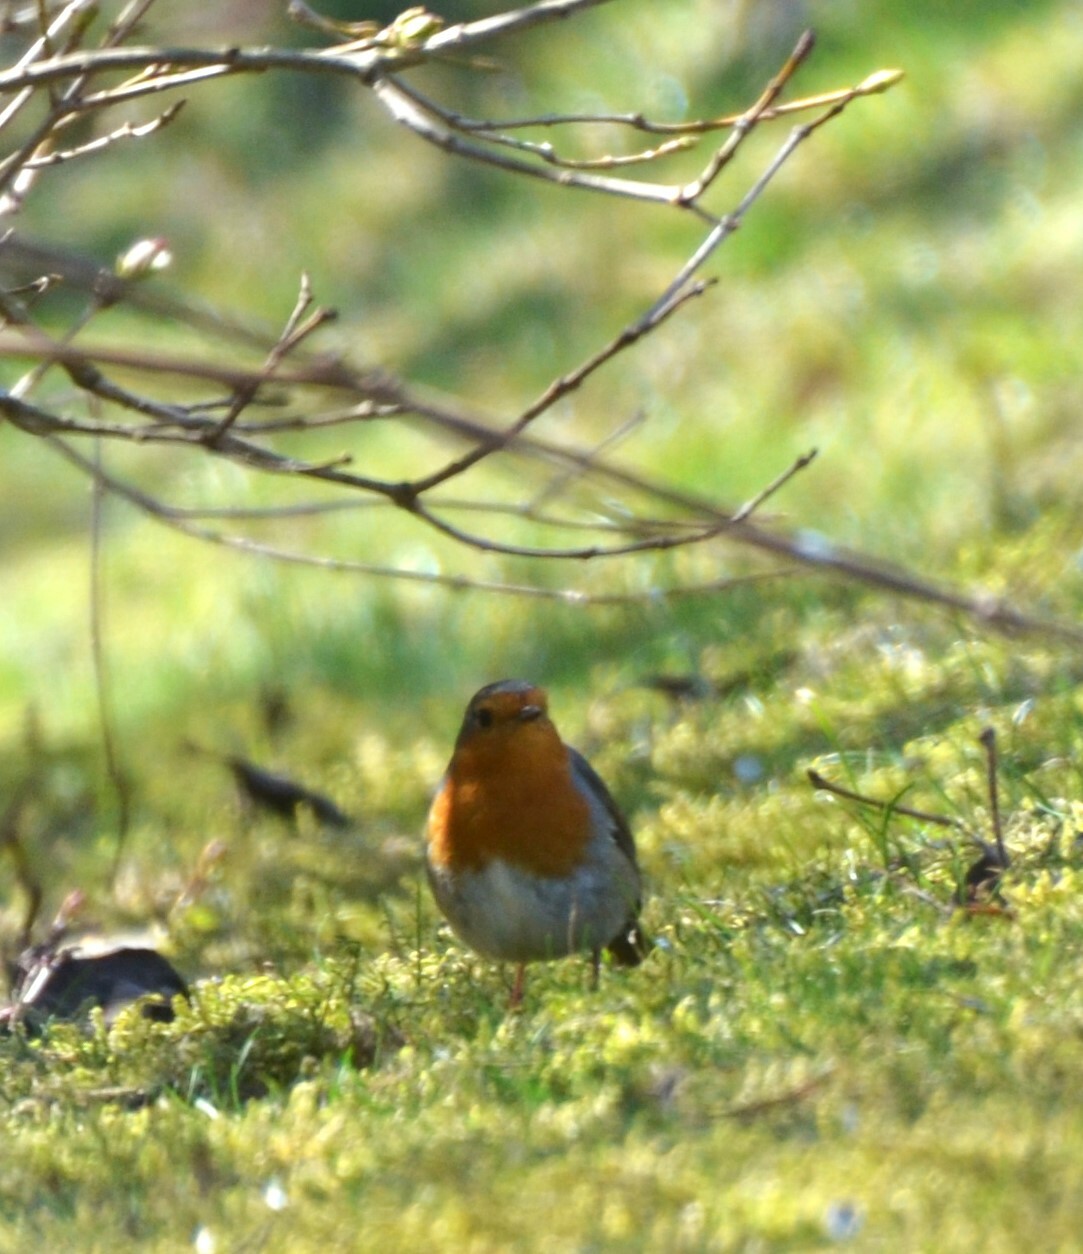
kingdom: Animalia
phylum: Chordata
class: Aves
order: Passeriformes
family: Muscicapidae
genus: Erithacus
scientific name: Erithacus rubecula
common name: European robin
